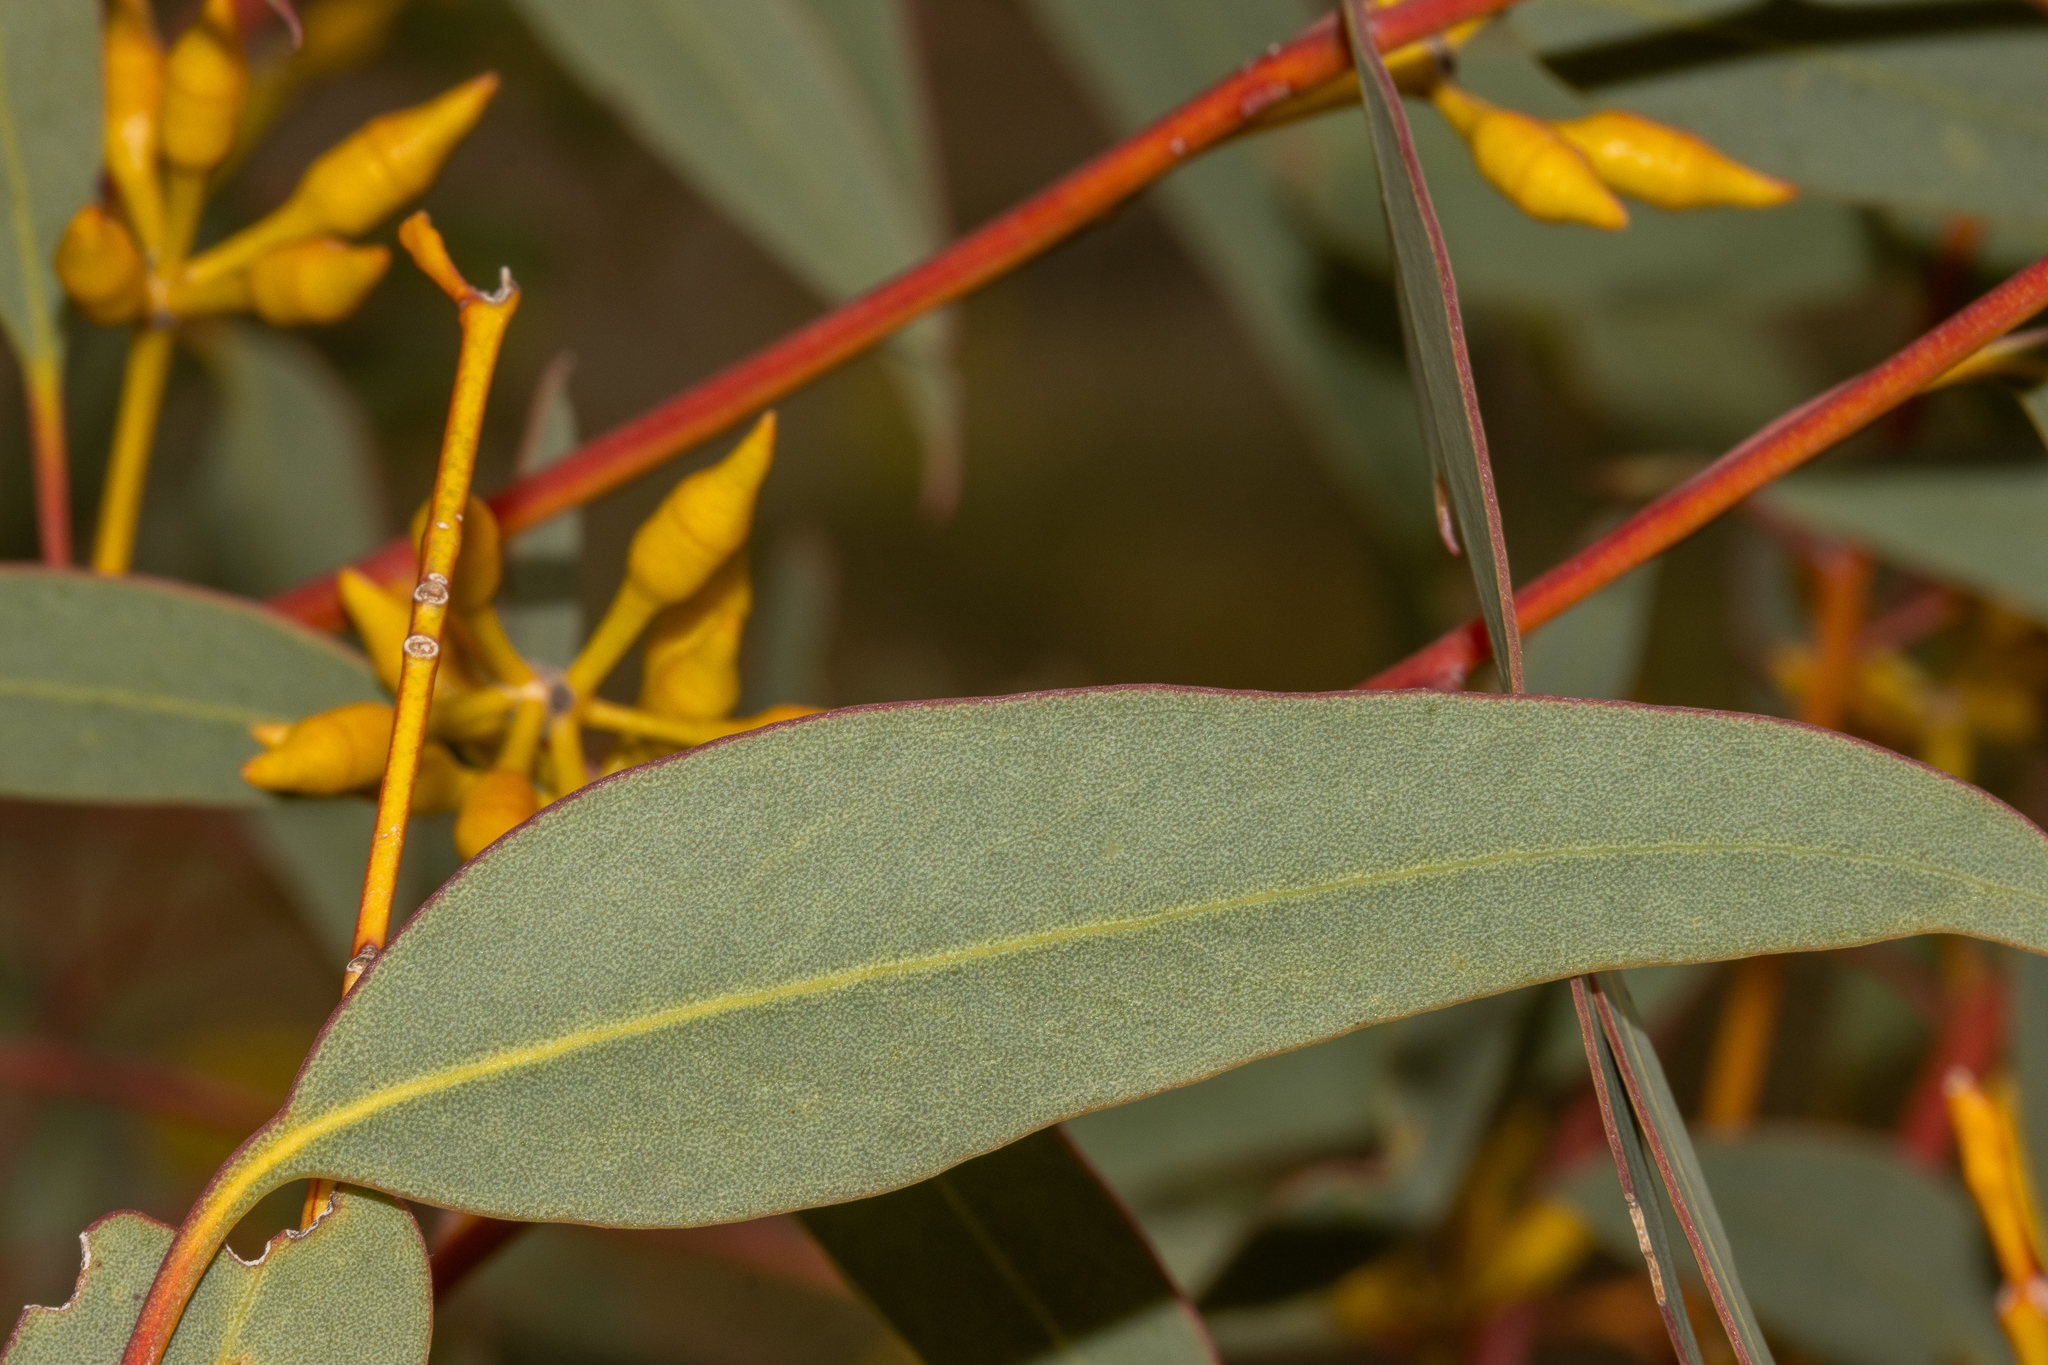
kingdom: Plantae
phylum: Tracheophyta
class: Magnoliopsida
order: Myrtales
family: Myrtaceae
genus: Eucalyptus
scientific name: Eucalyptus socialis
